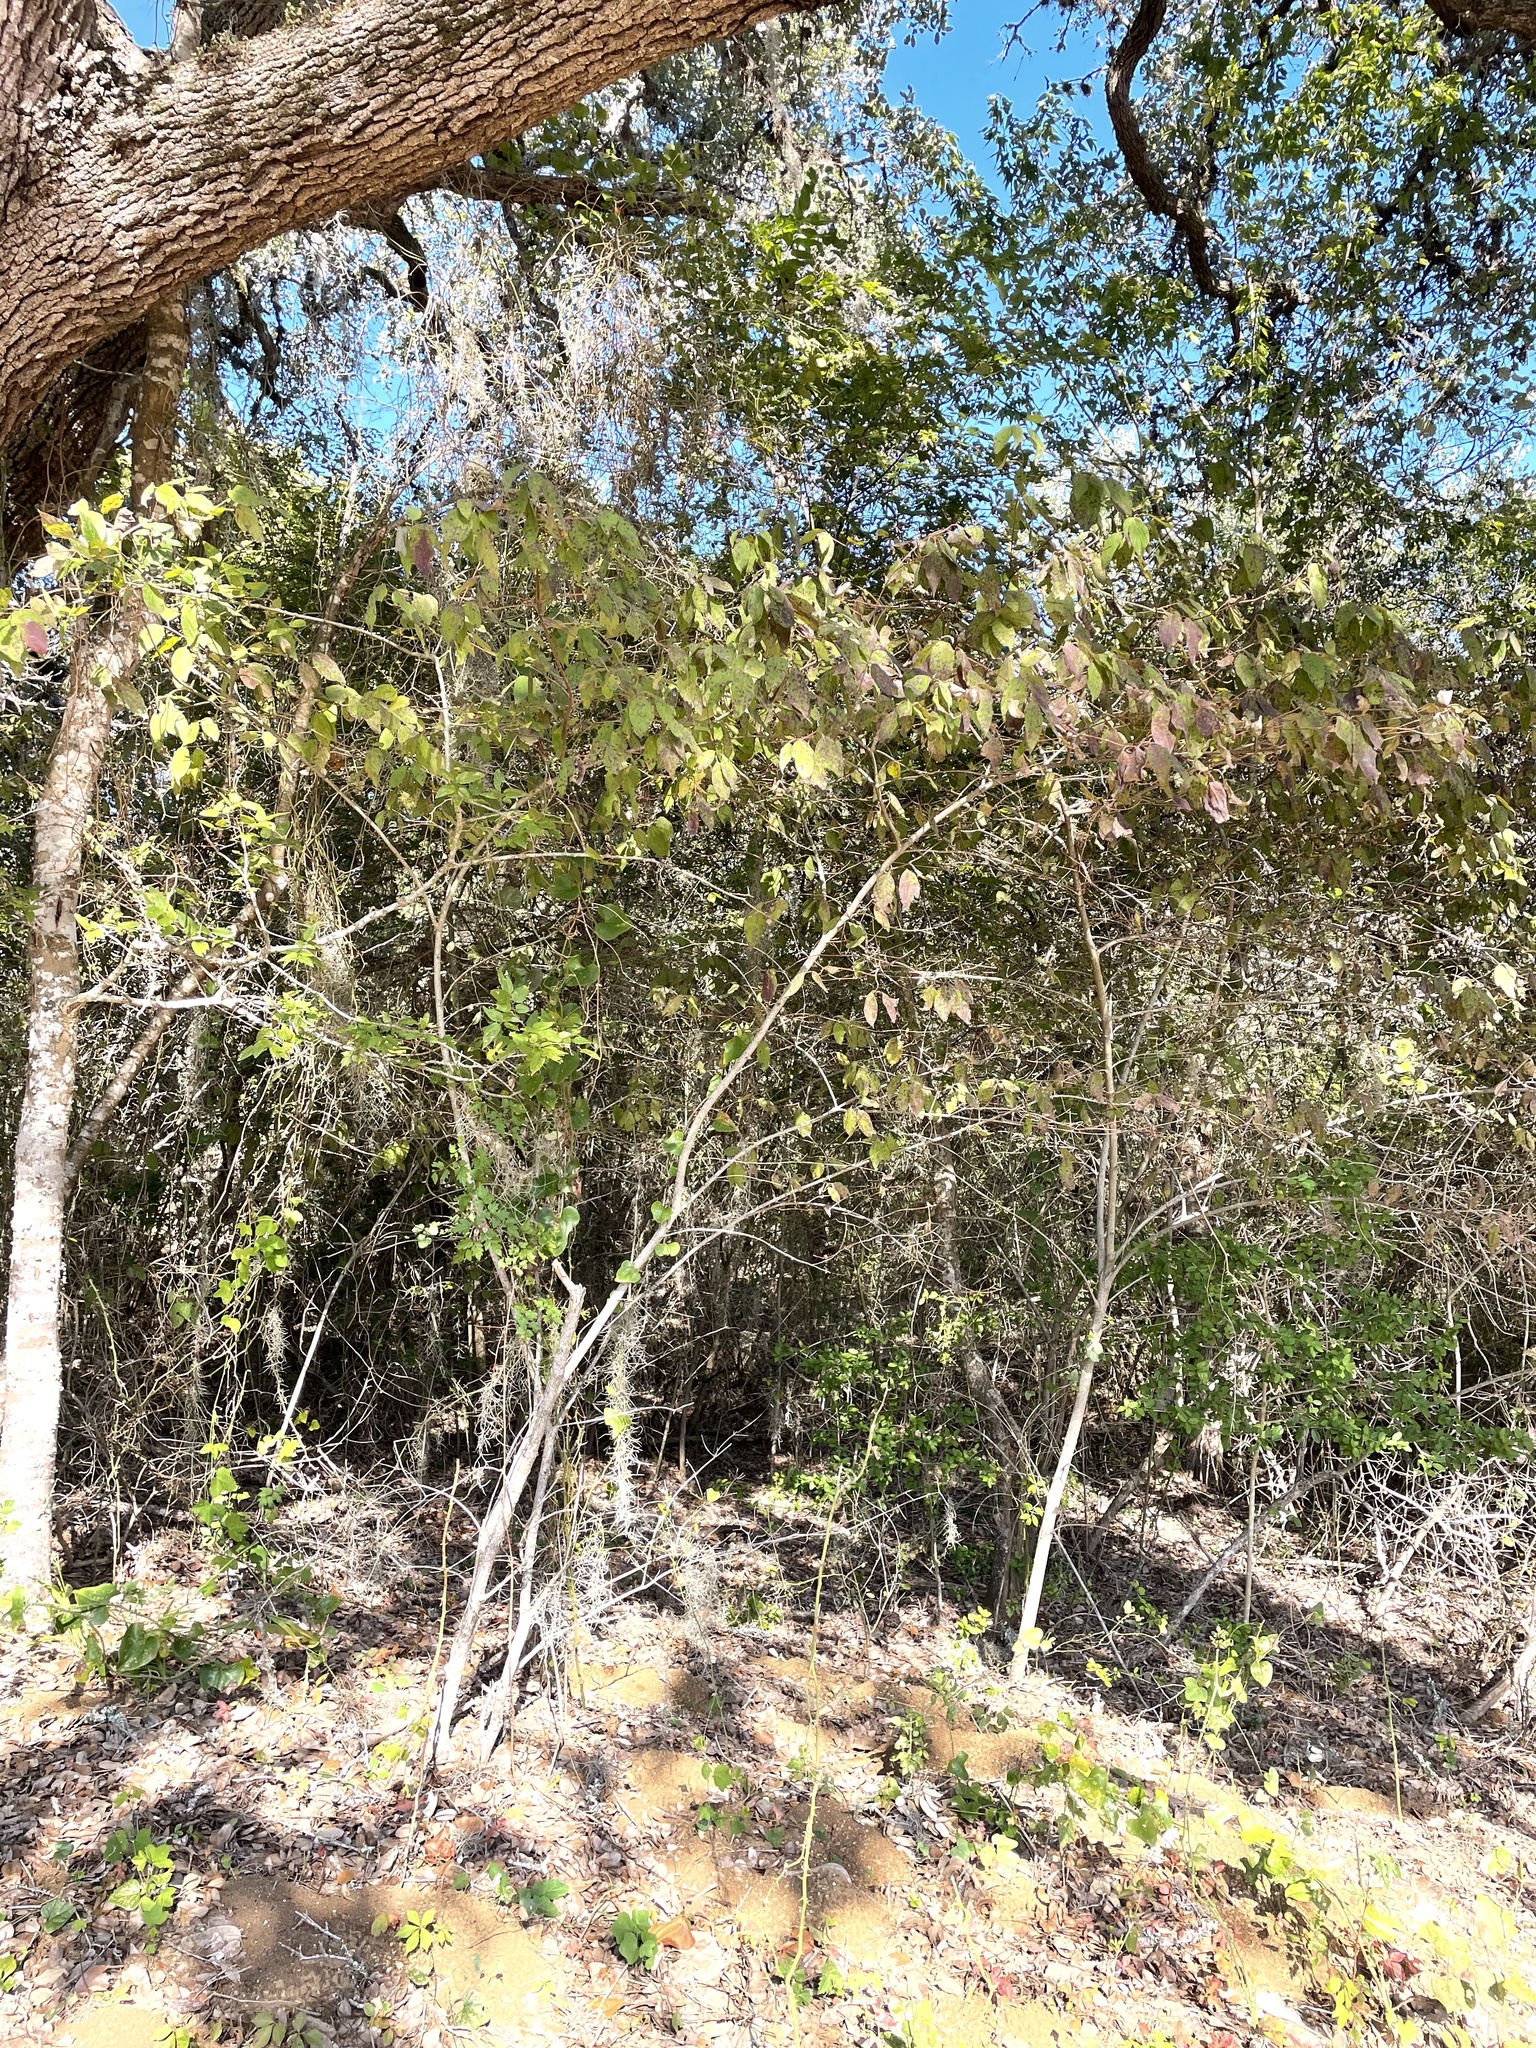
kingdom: Plantae
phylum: Tracheophyta
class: Magnoliopsida
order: Cornales
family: Cornaceae
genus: Cornus
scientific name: Cornus drummondii
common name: Rough-leaf dogwood
